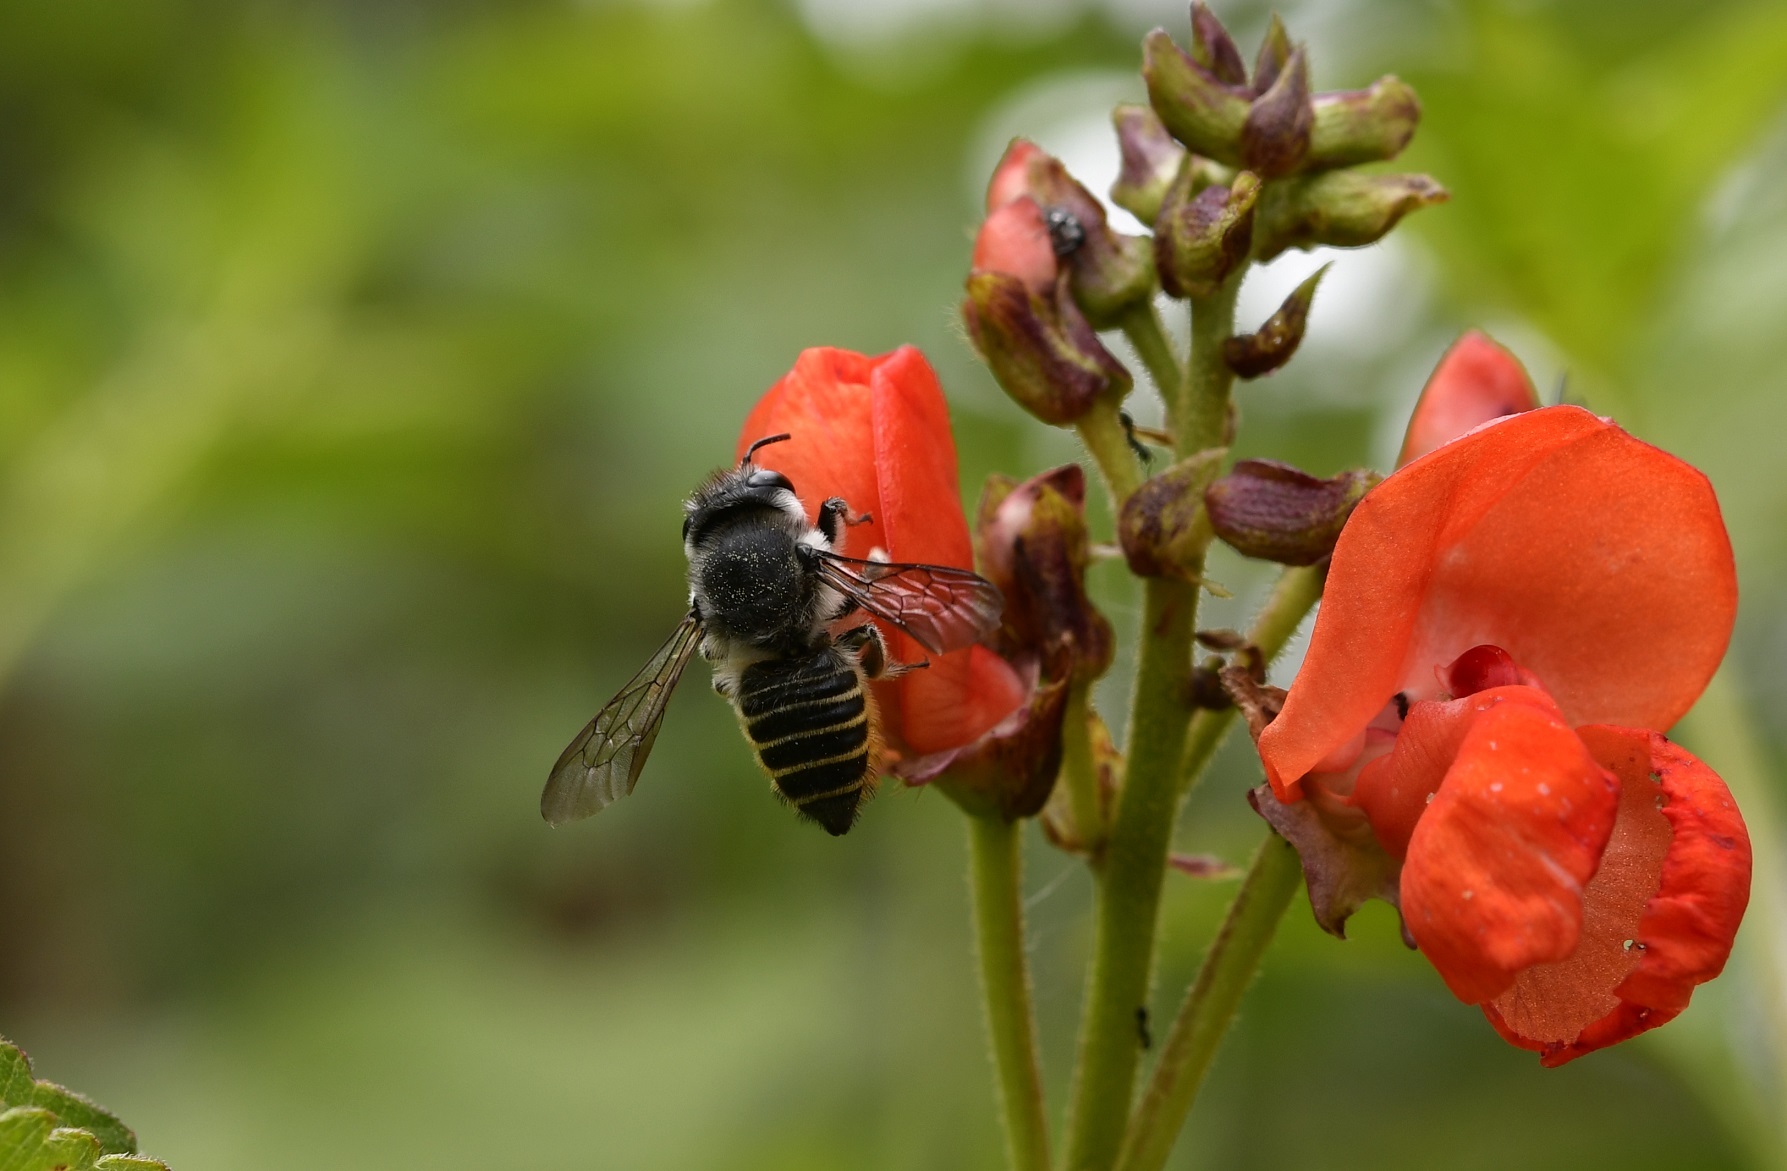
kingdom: Animalia
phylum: Arthropoda
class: Insecta
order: Hymenoptera
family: Megachilidae
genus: Megachile
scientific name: Megachile zapoteca
